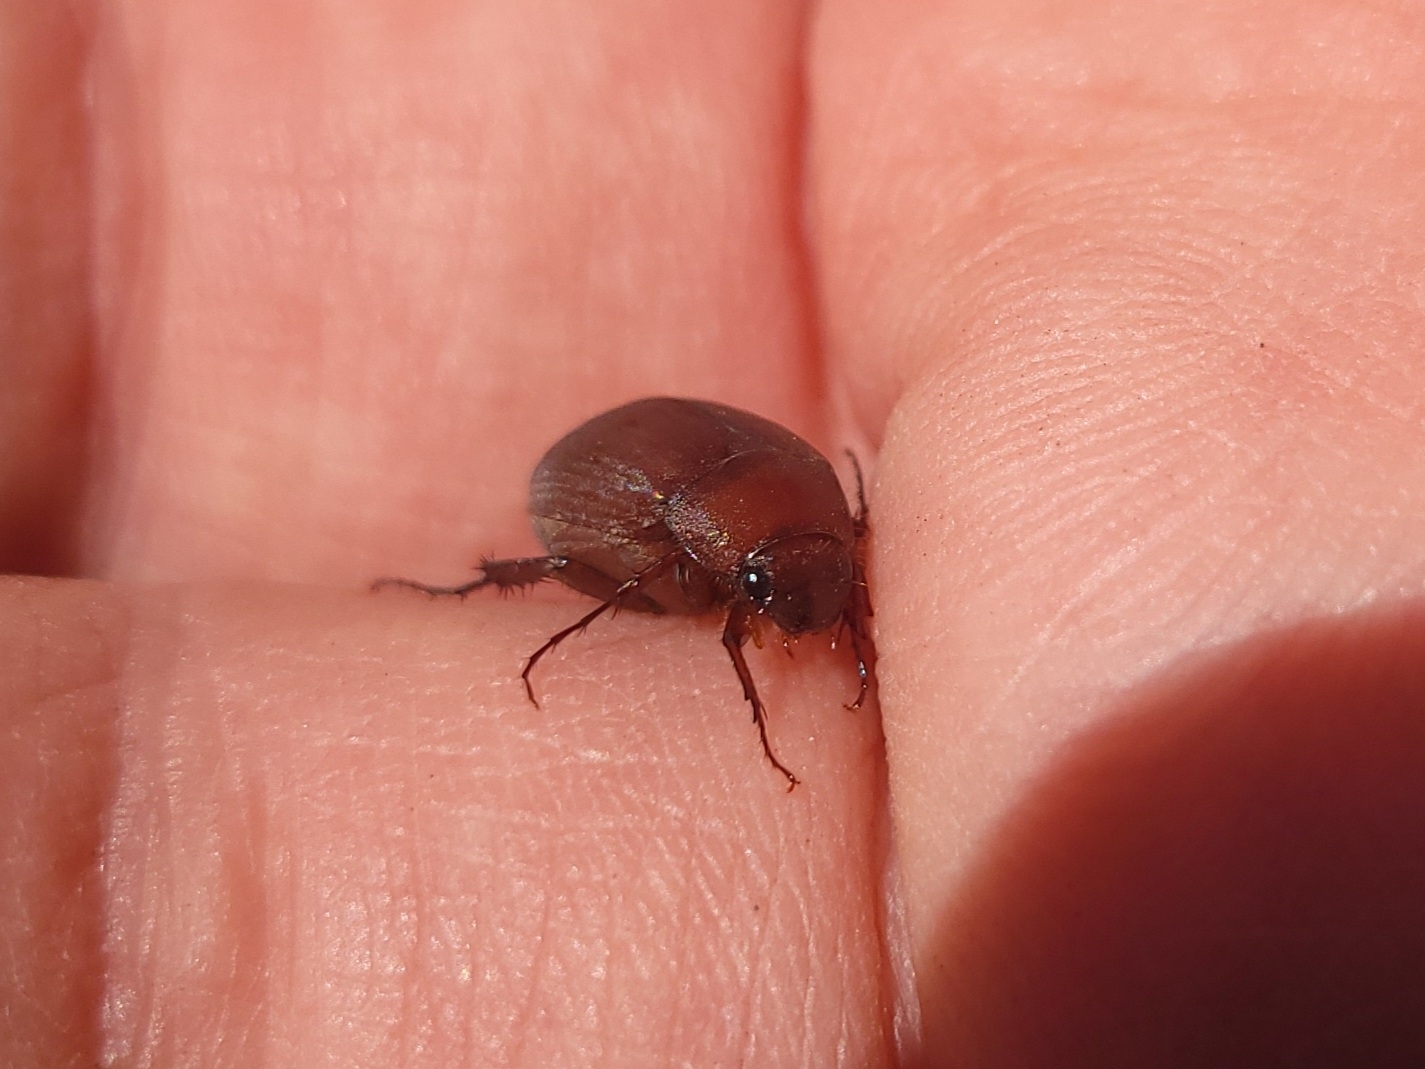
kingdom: Animalia
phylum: Arthropoda
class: Insecta
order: Coleoptera
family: Scarabaeidae
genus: Maladera
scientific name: Maladera formosae
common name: Asiatic garden beetle
